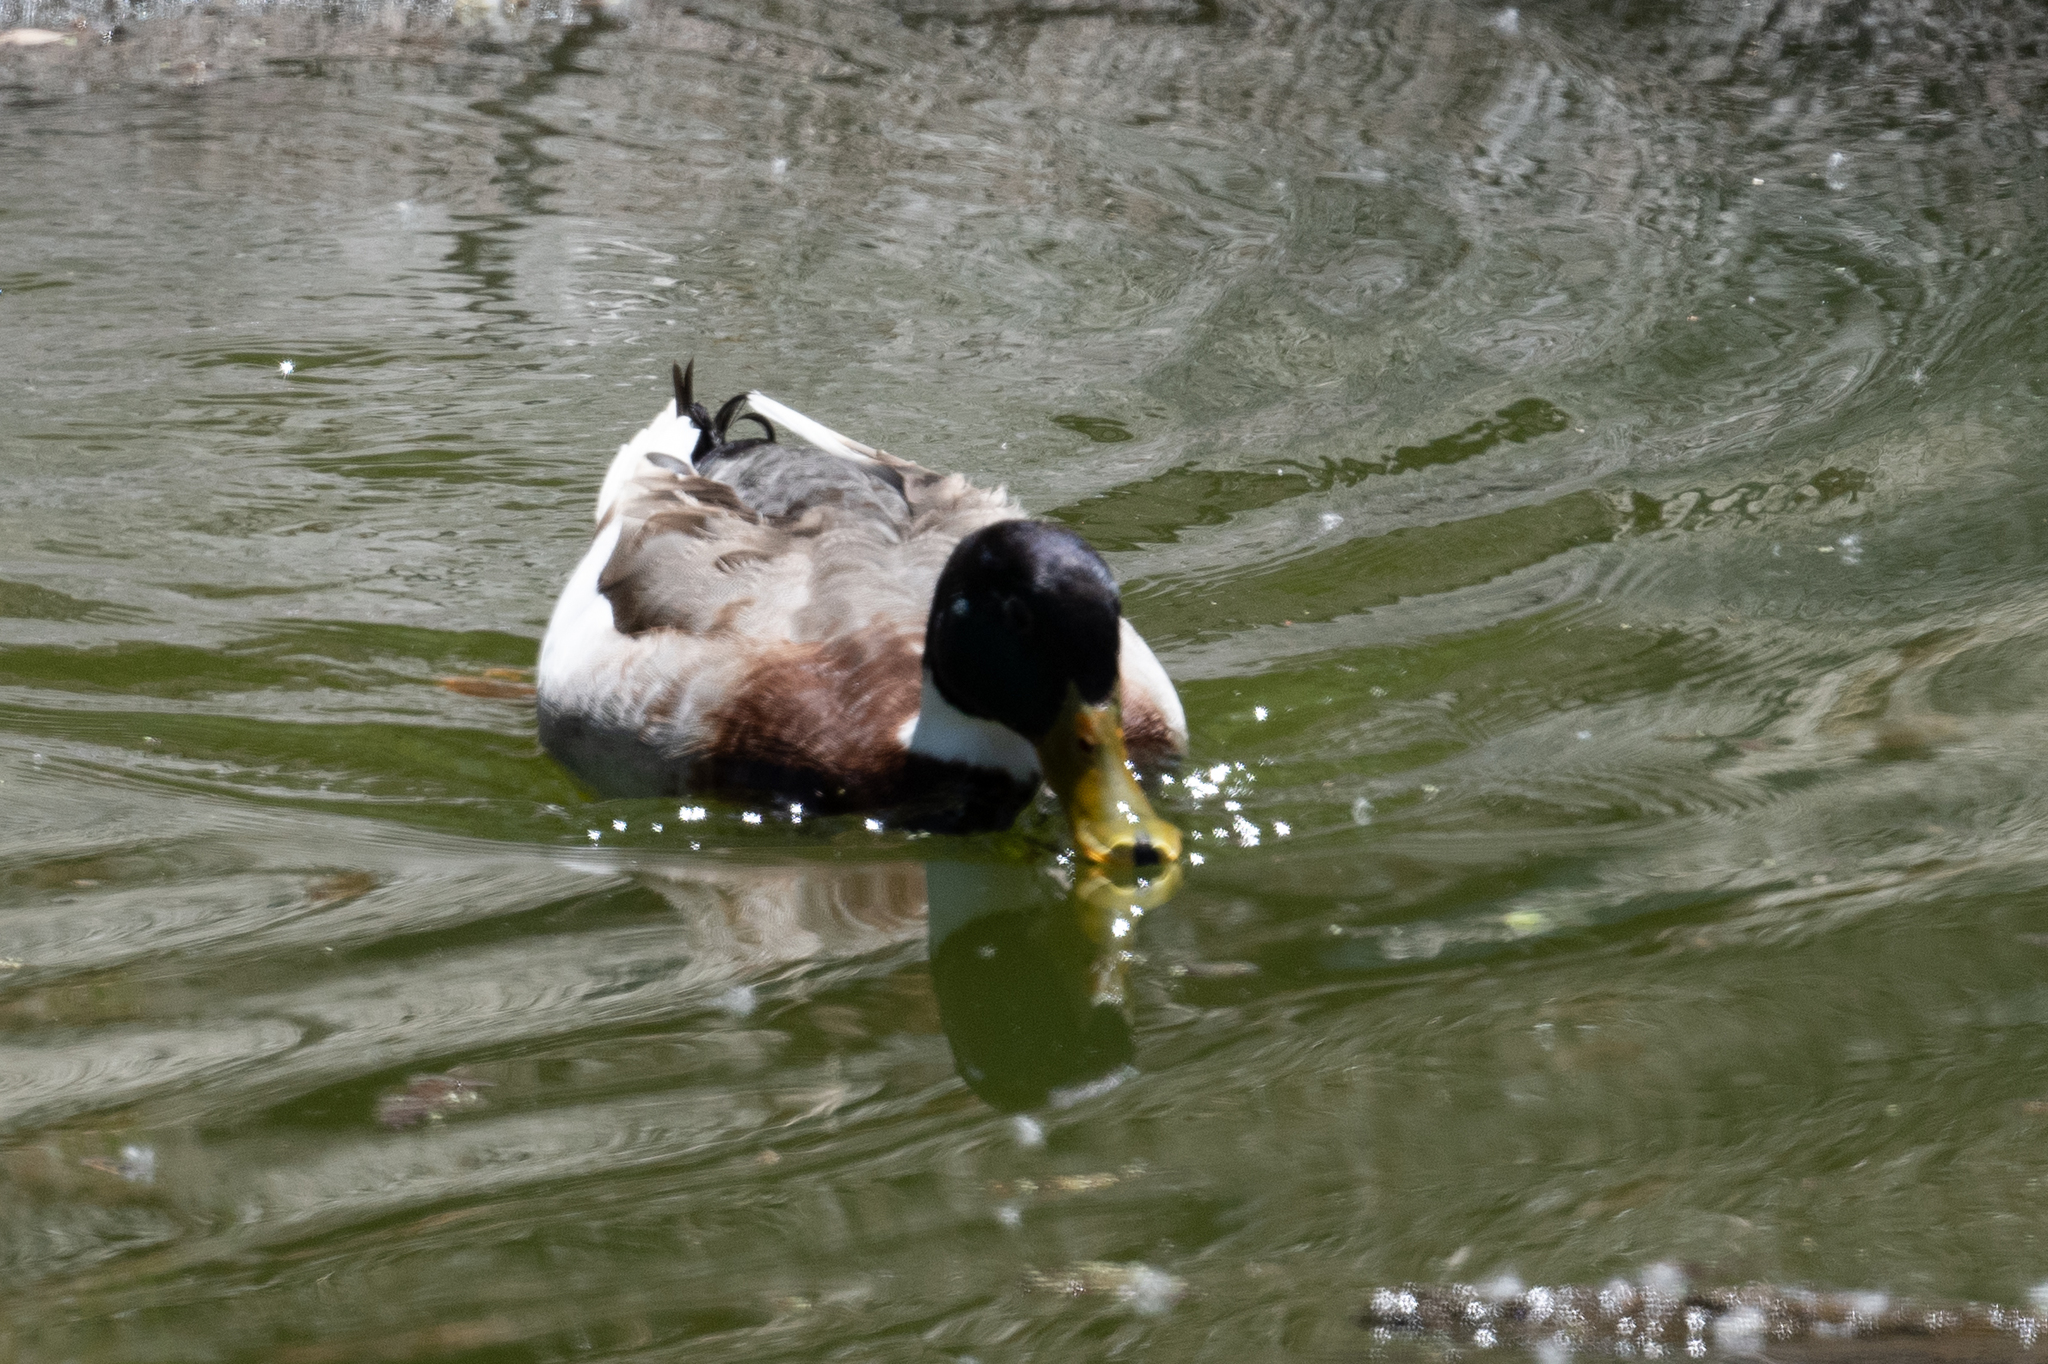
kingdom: Animalia
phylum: Chordata
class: Aves
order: Anseriformes
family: Anatidae
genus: Anas
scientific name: Anas platyrhynchos
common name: Mallard
